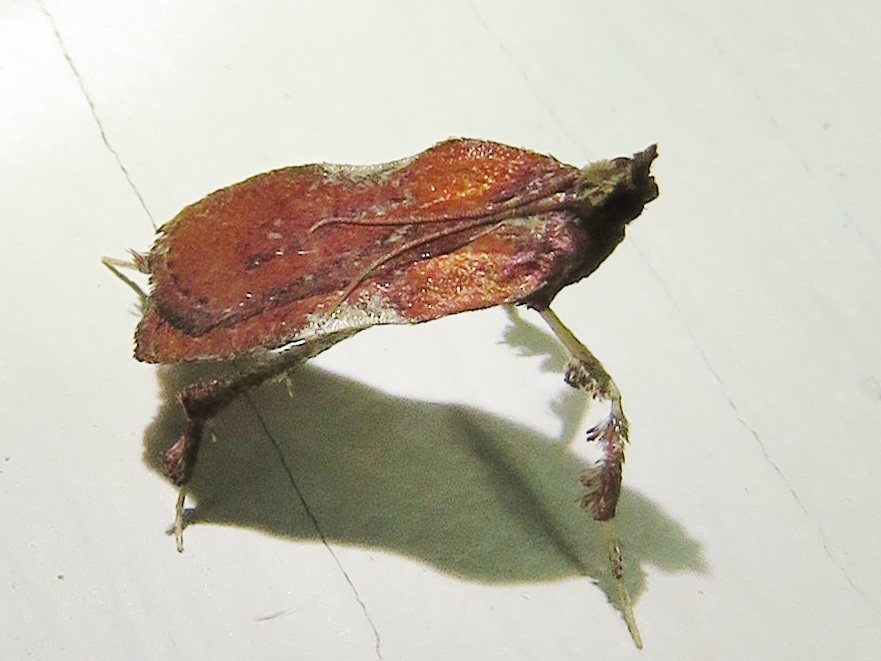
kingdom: Animalia
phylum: Arthropoda
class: Insecta
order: Lepidoptera
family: Pyralidae
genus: Galasa
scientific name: Galasa nigrinodis
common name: Boxwood leaftier moth
